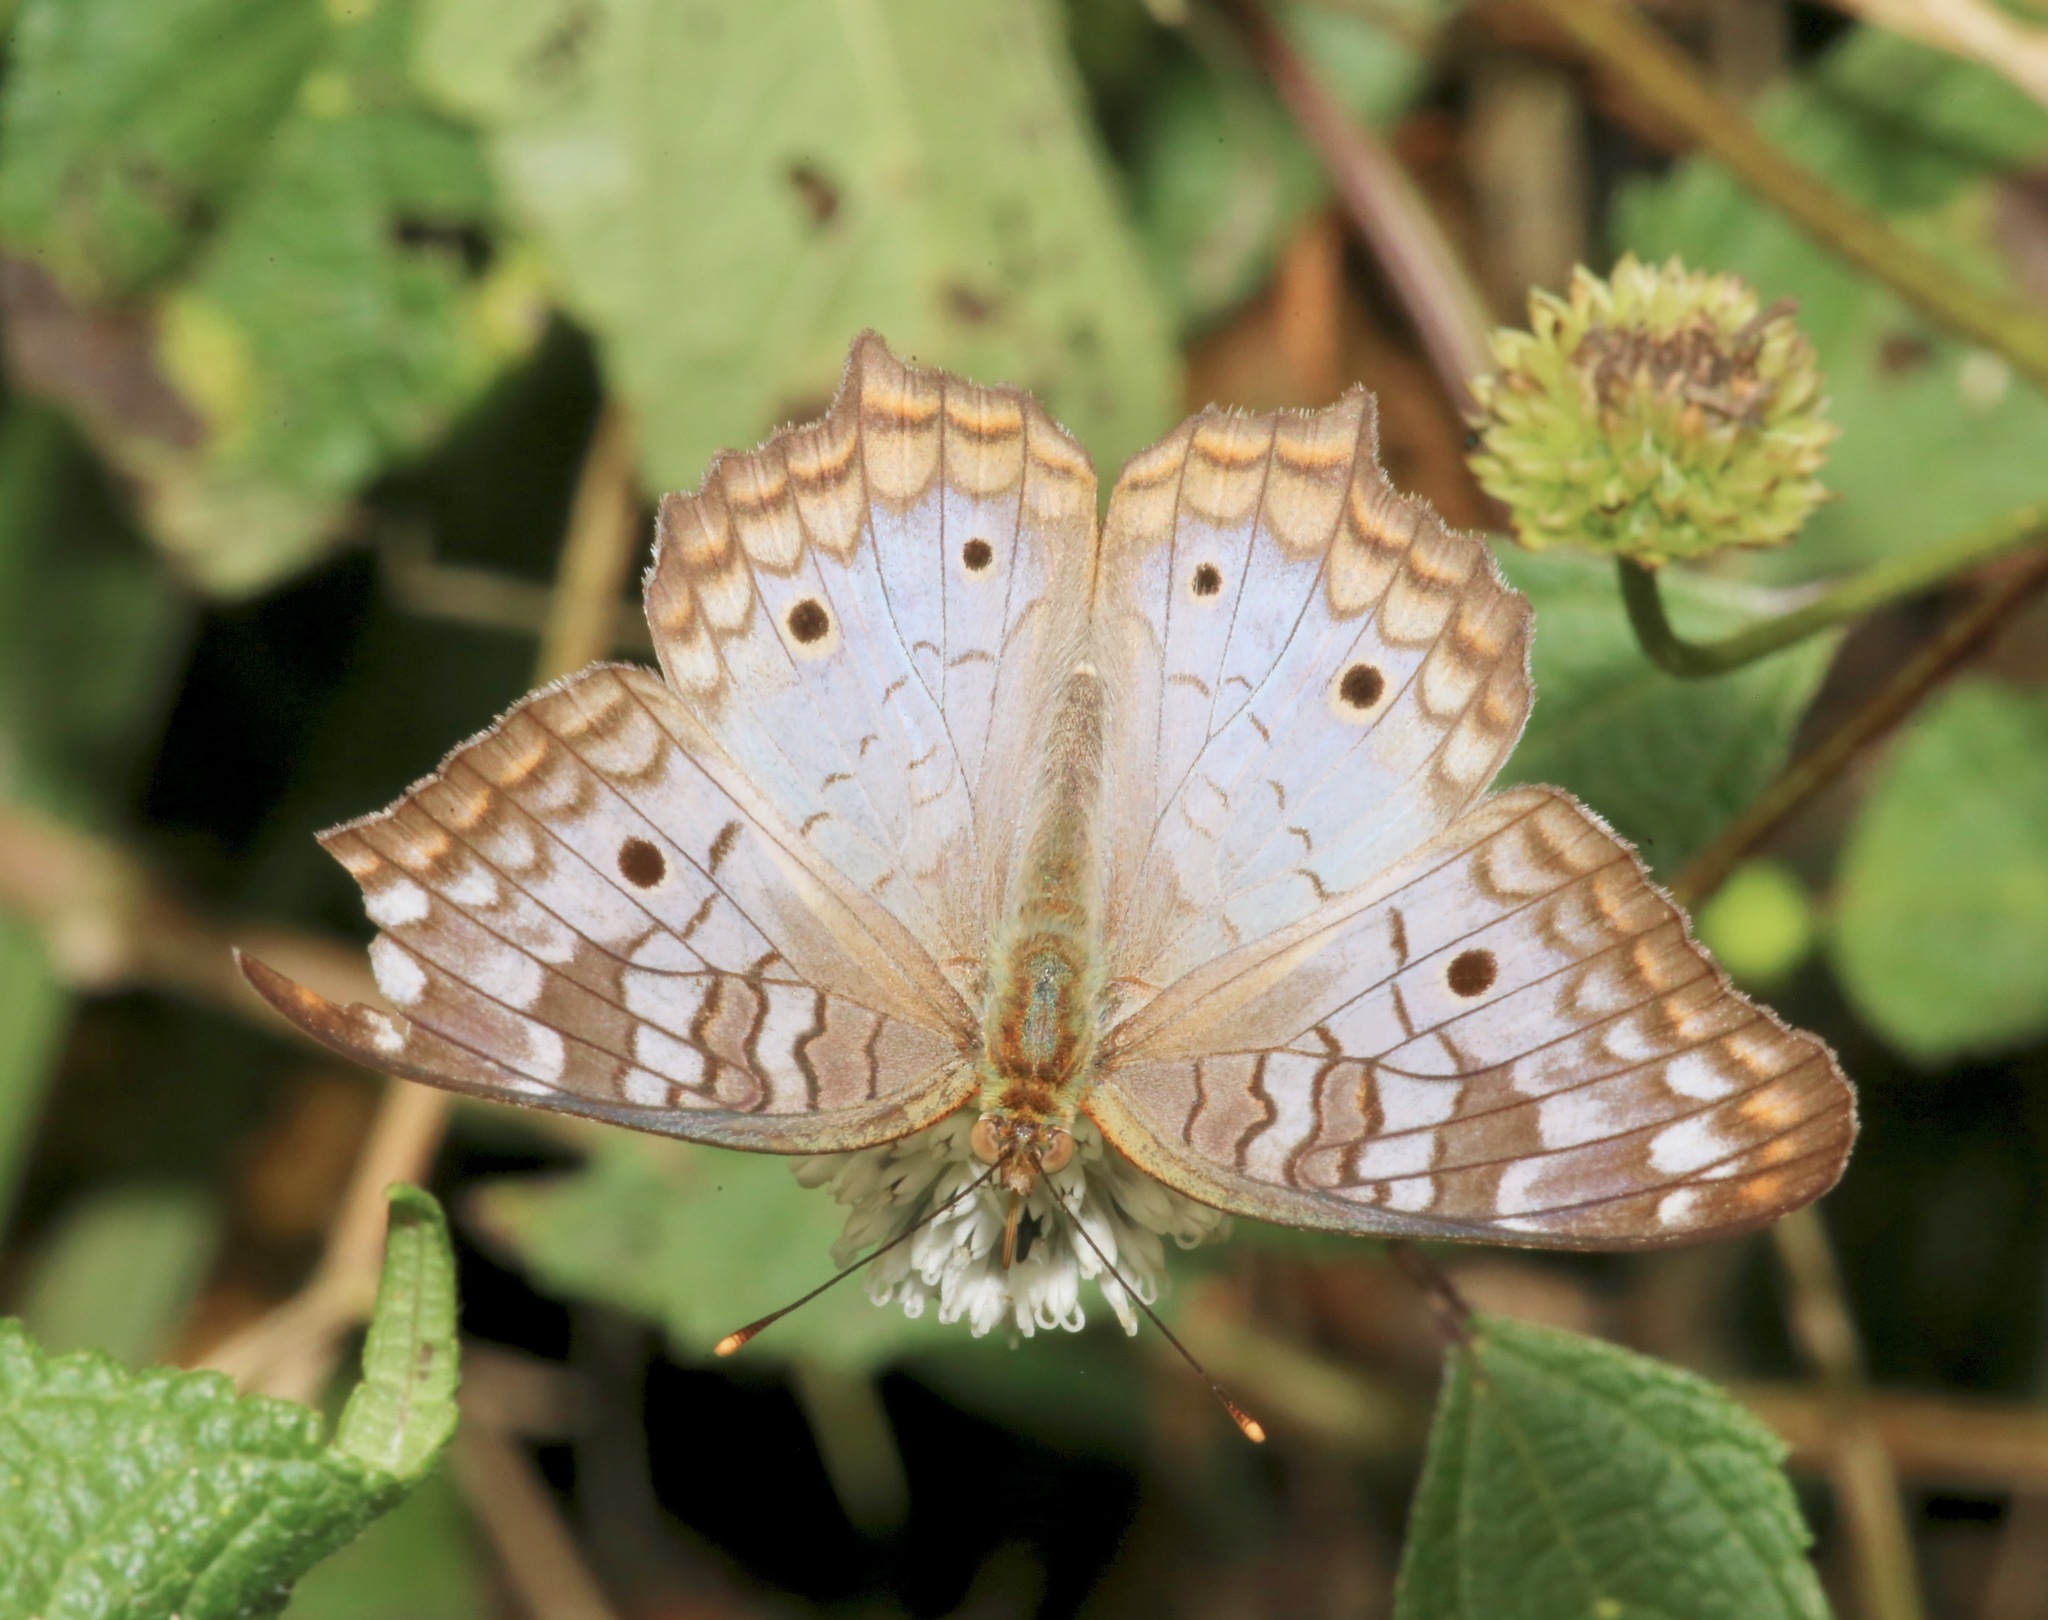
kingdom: Animalia
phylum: Arthropoda
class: Insecta
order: Lepidoptera
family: Nymphalidae
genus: Anartia
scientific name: Anartia jatrophae
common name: White peacock
